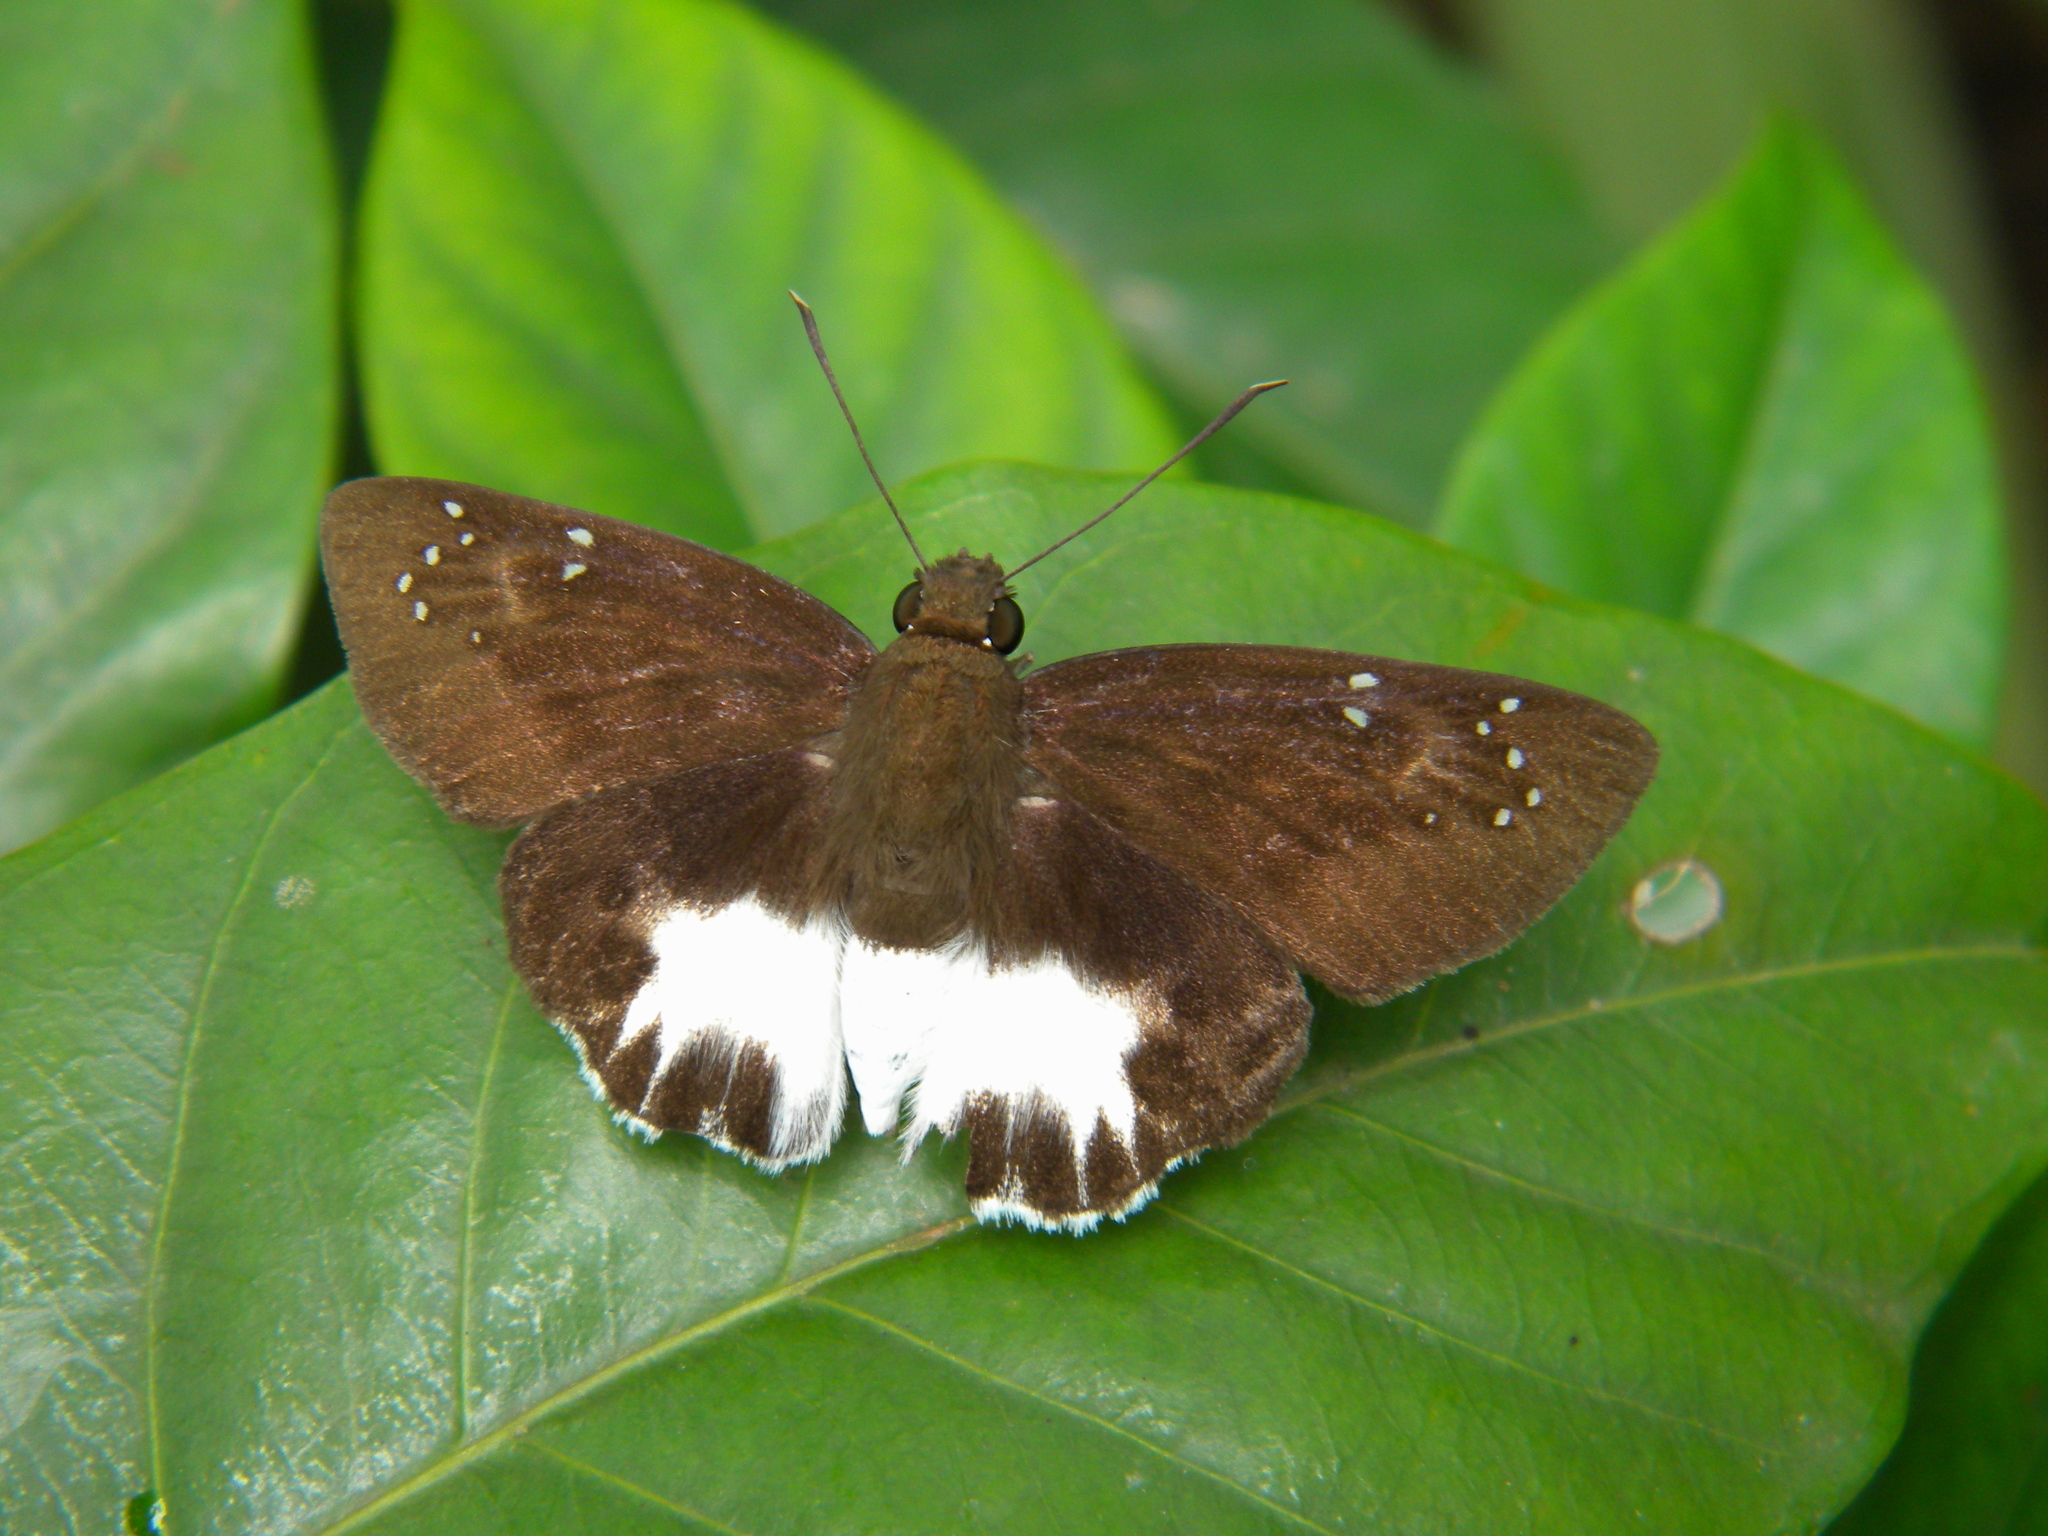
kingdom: Animalia
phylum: Arthropoda
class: Insecta
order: Lepidoptera
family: Hesperiidae
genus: Tagiades
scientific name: Tagiades litigiosa
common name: Water snow flat
